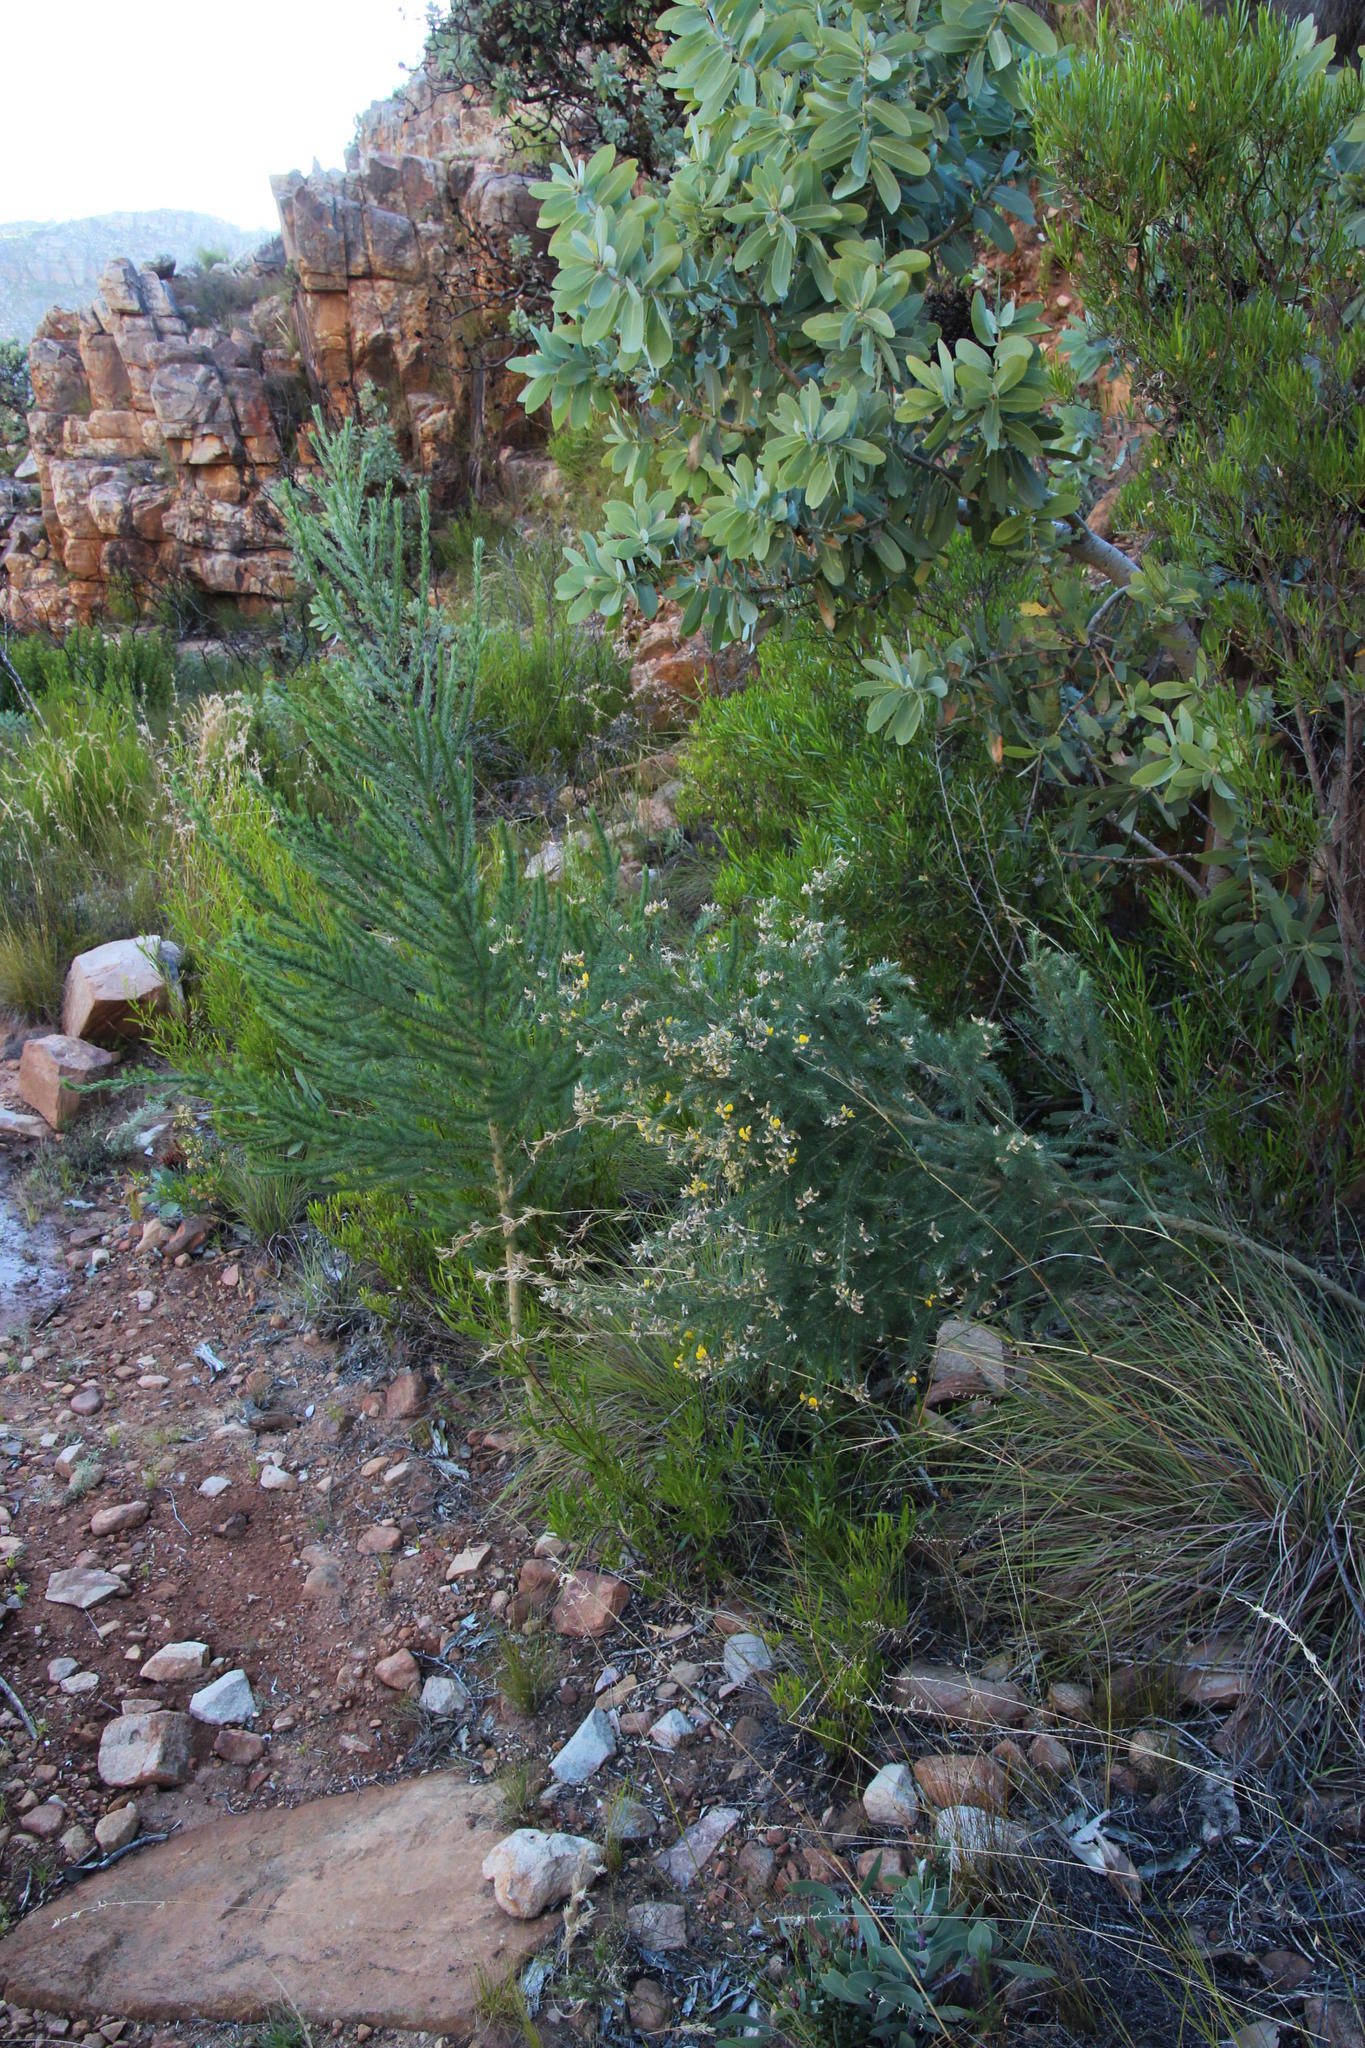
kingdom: Plantae
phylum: Tracheophyta
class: Magnoliopsida
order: Fabales
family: Fabaceae
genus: Aspalathus
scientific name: Aspalathus decora
